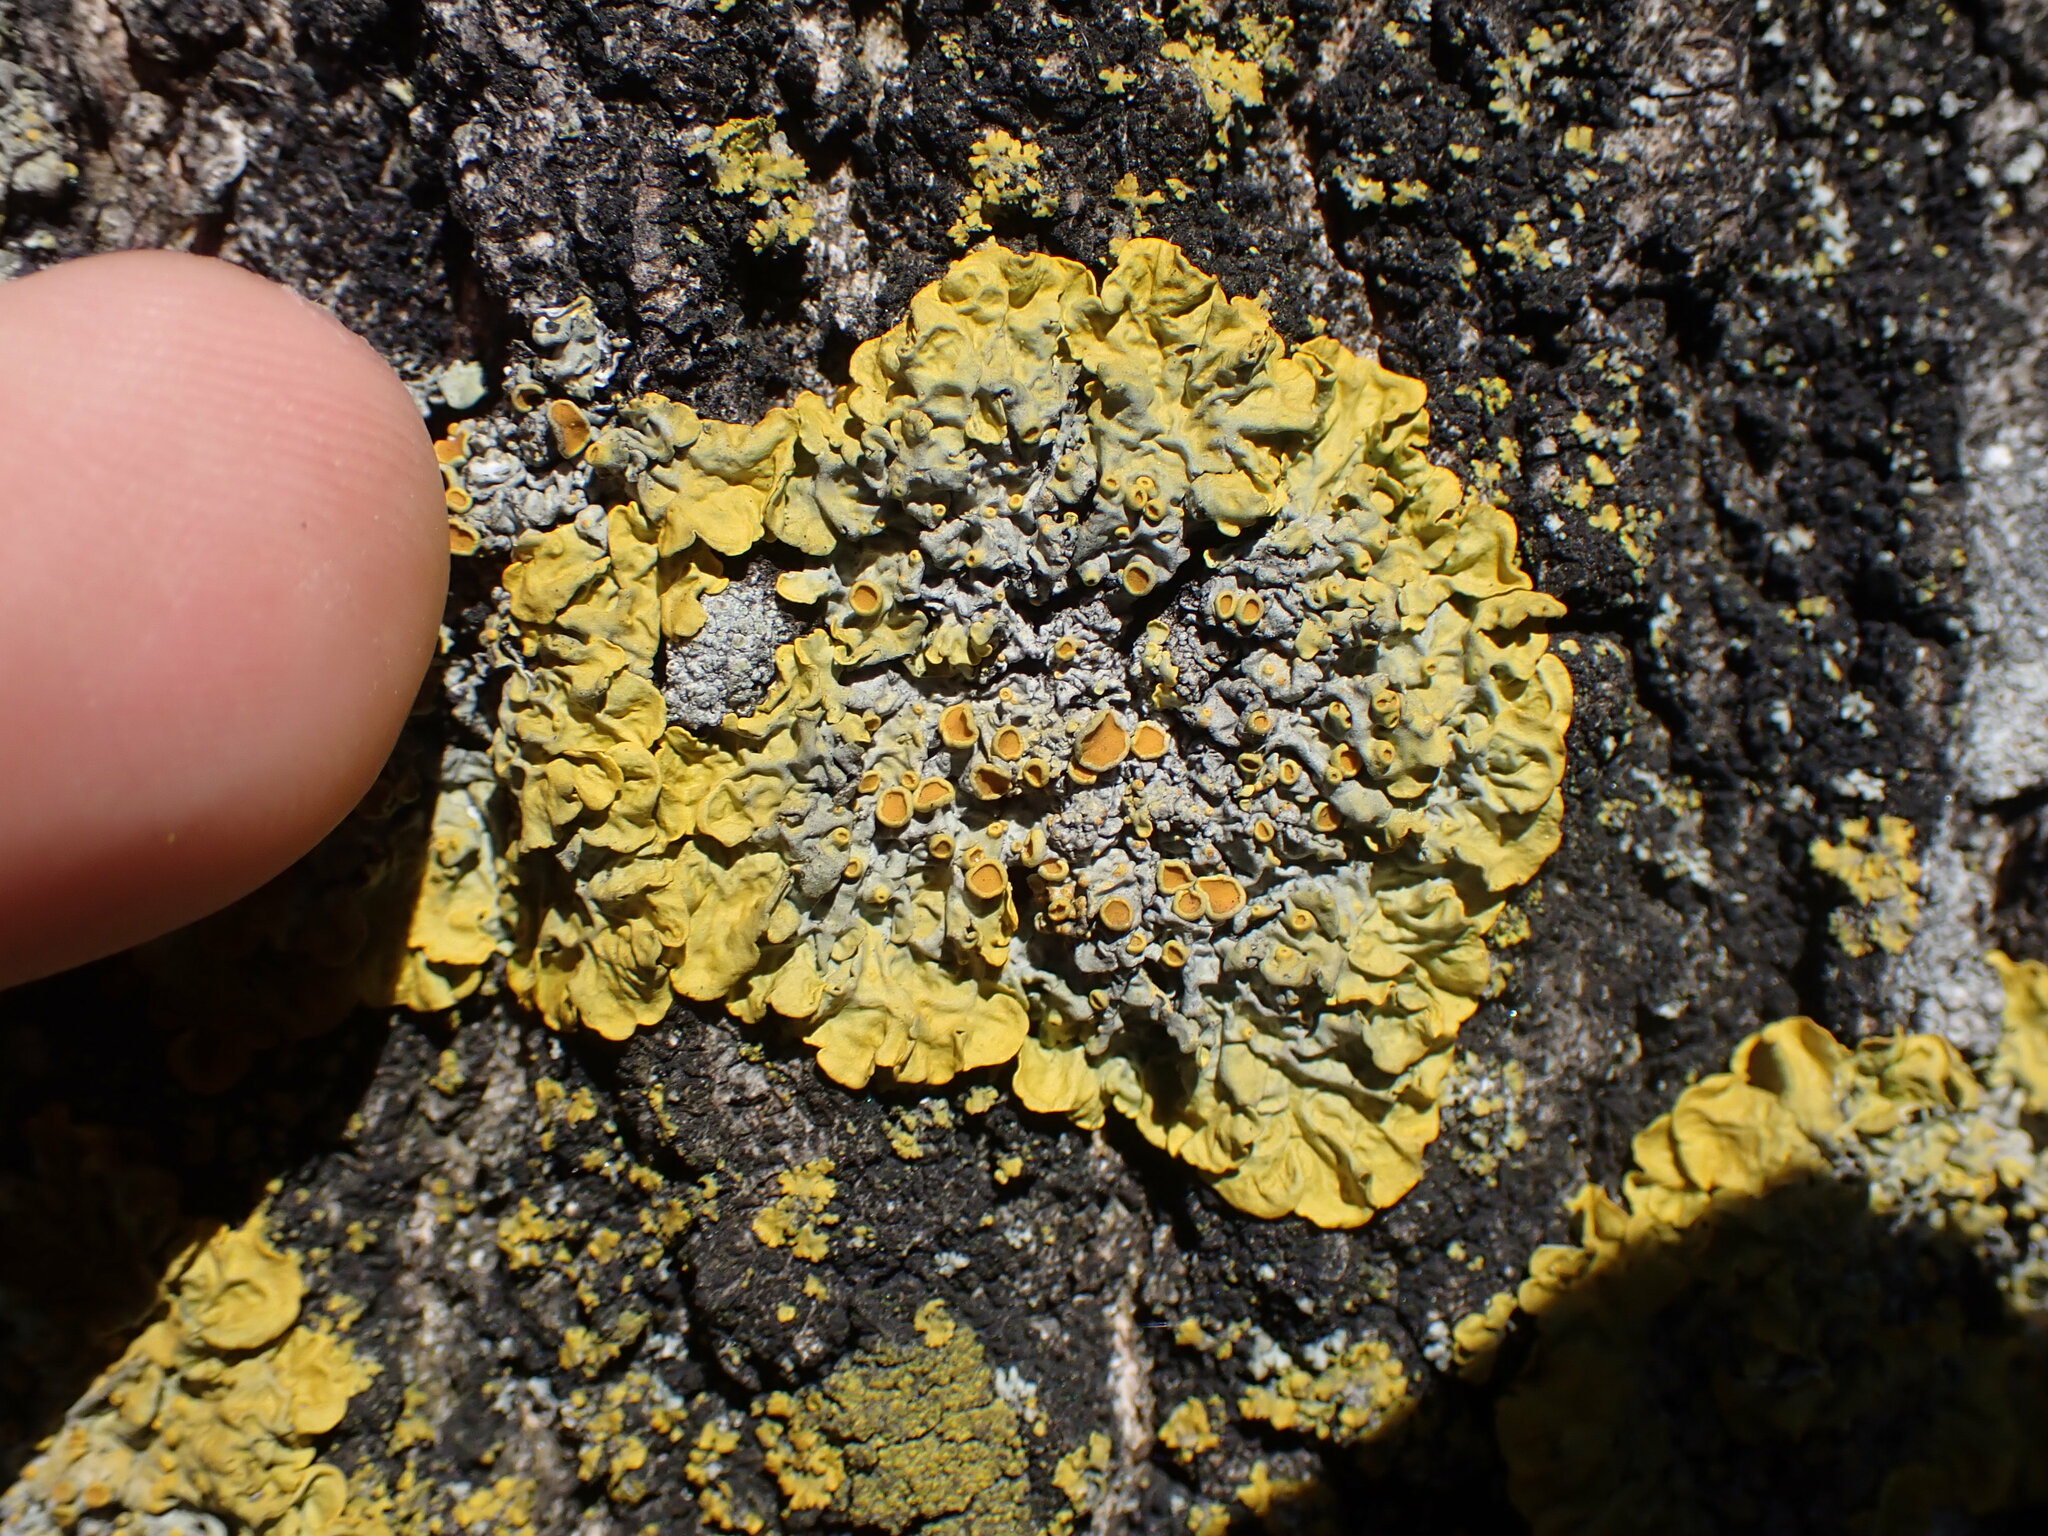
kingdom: Fungi
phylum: Ascomycota
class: Lecanoromycetes
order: Teloschistales
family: Teloschistaceae
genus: Xanthoria
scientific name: Xanthoria parietina
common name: Common orange lichen
